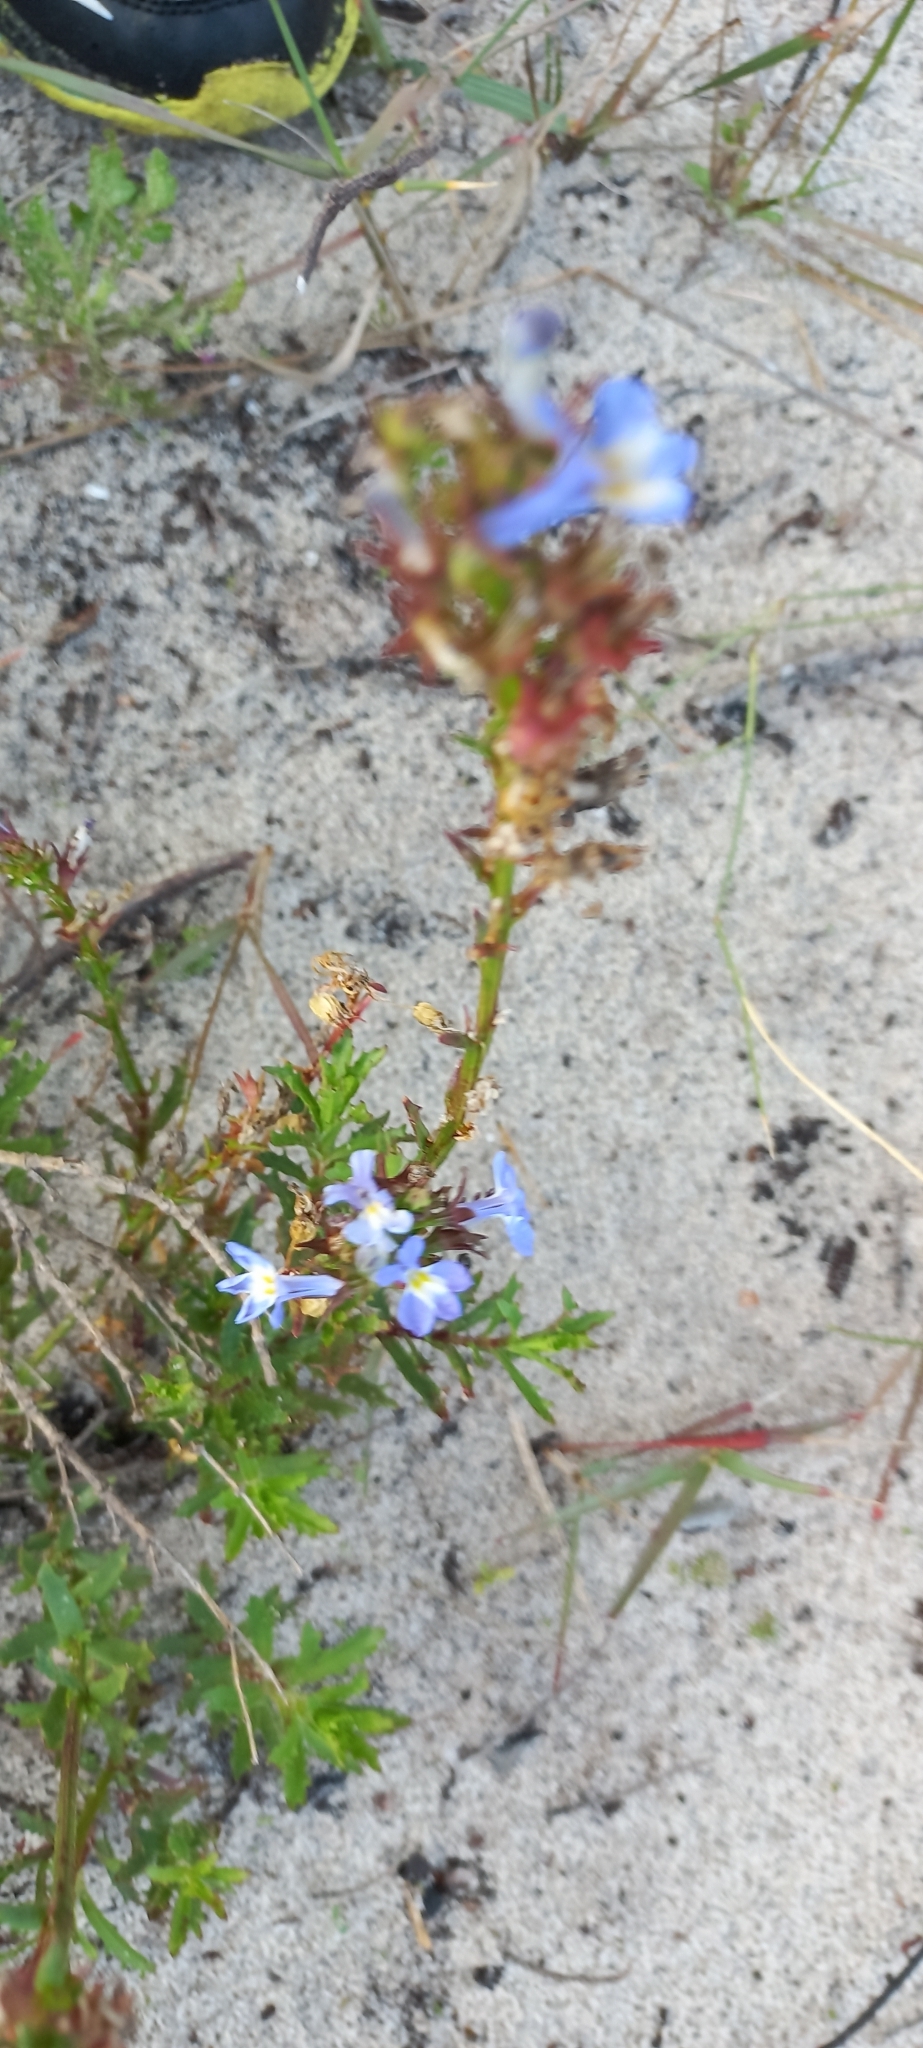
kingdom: Plantae
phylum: Tracheophyta
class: Magnoliopsida
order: Asterales
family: Campanulaceae
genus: Lobelia
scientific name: Lobelia comosa
